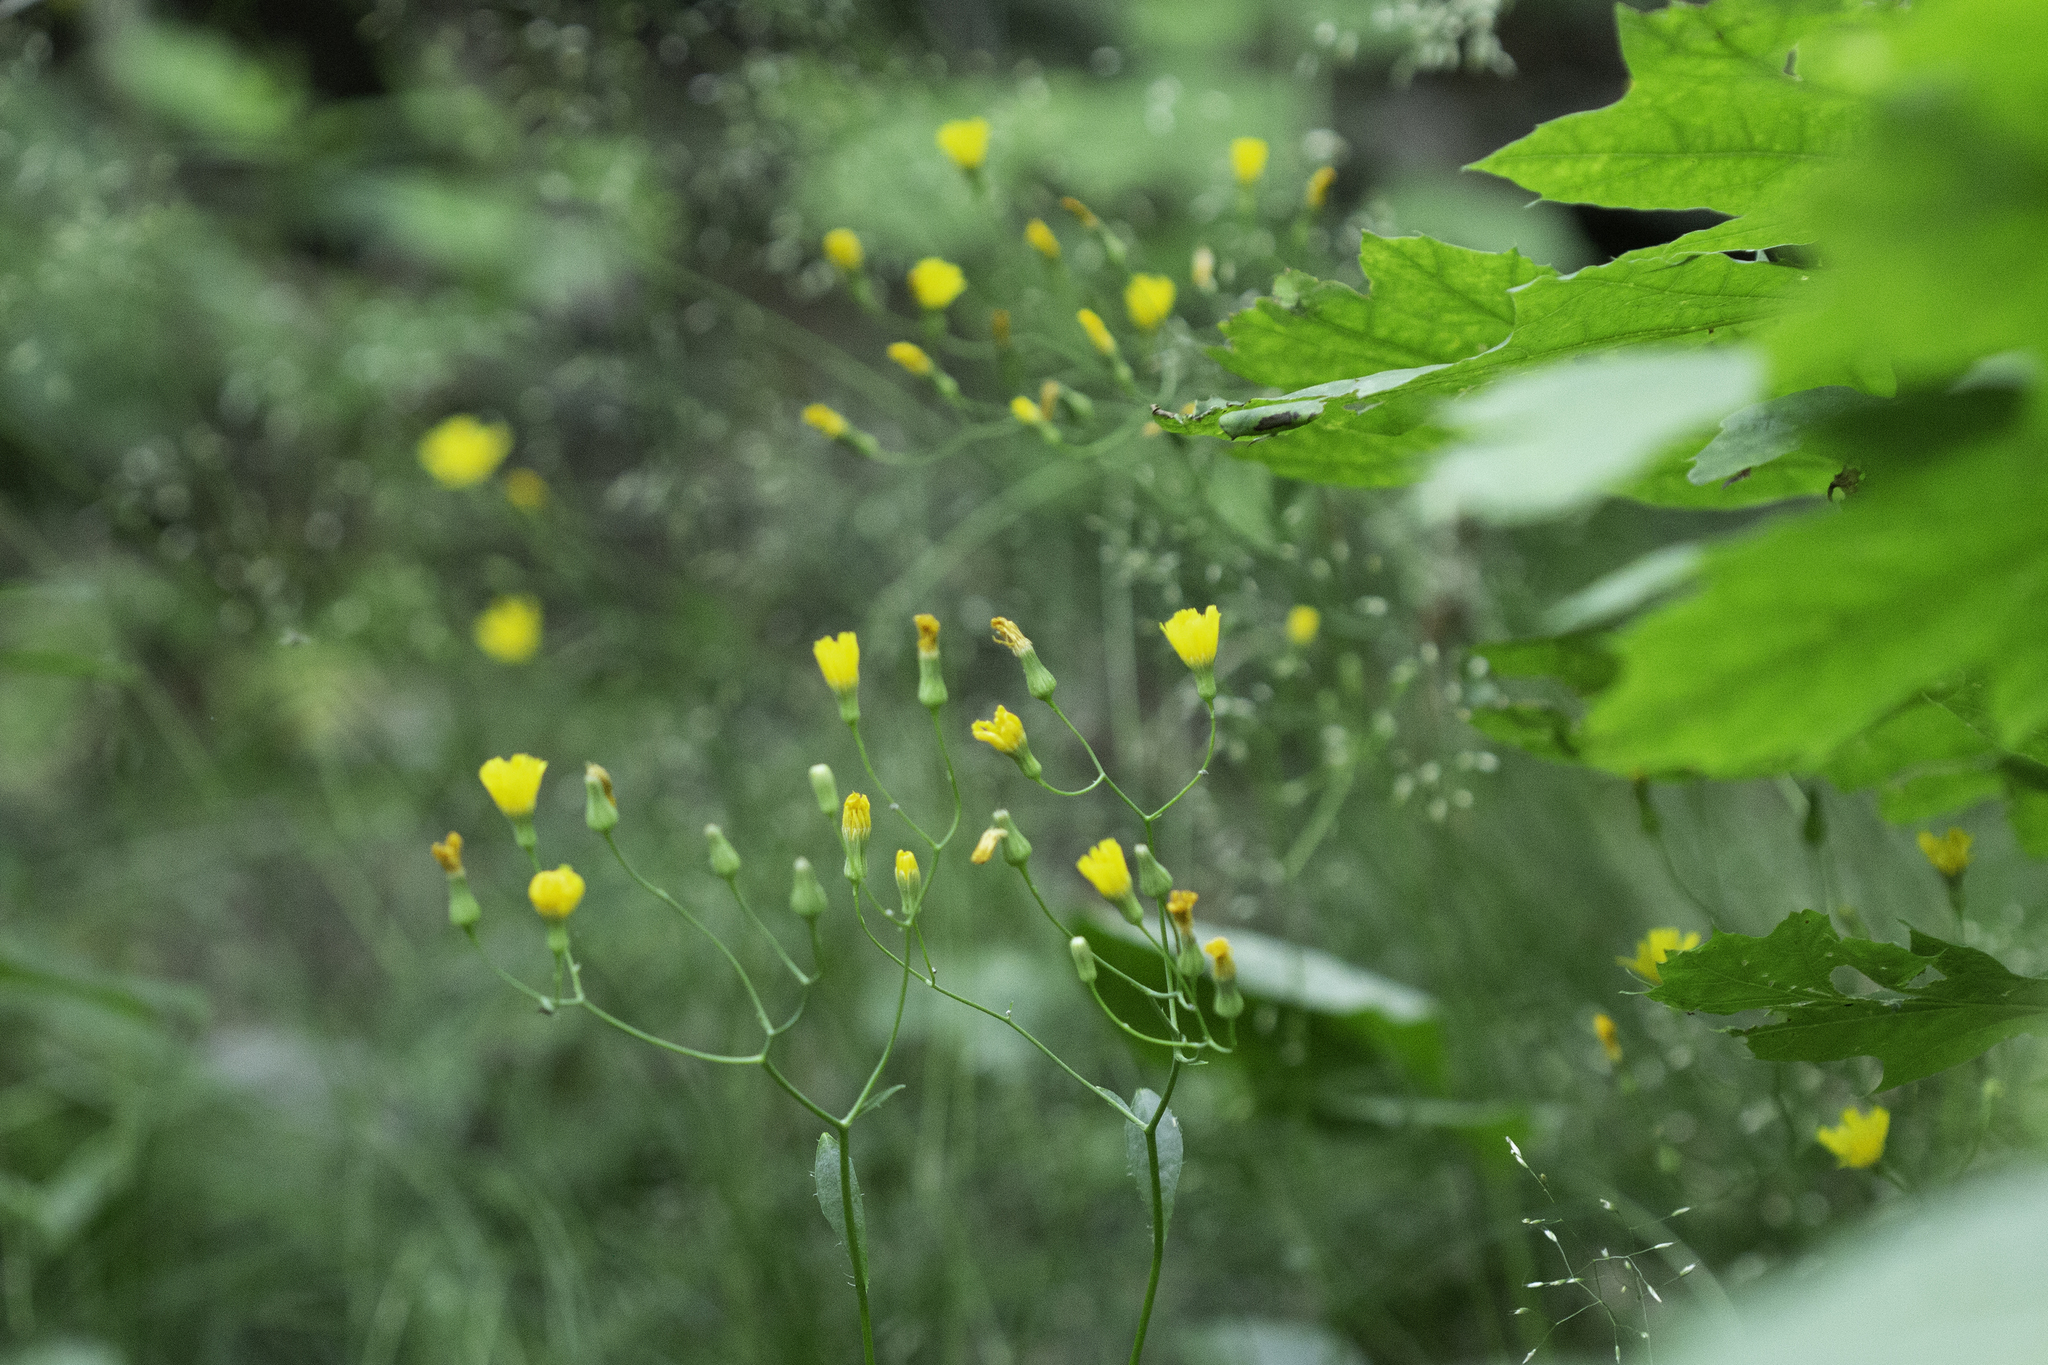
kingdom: Plantae
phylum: Tracheophyta
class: Magnoliopsida
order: Asterales
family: Asteraceae
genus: Lapsana
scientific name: Lapsana communis
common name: Nipplewort
